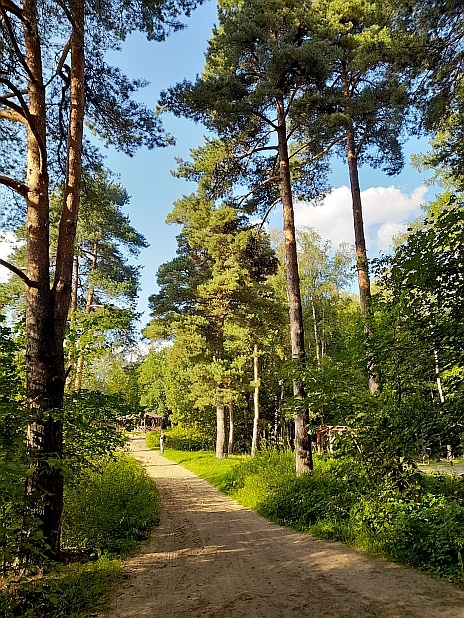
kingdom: Plantae
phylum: Tracheophyta
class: Pinopsida
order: Pinales
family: Pinaceae
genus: Pinus
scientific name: Pinus sylvestris
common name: Scots pine
